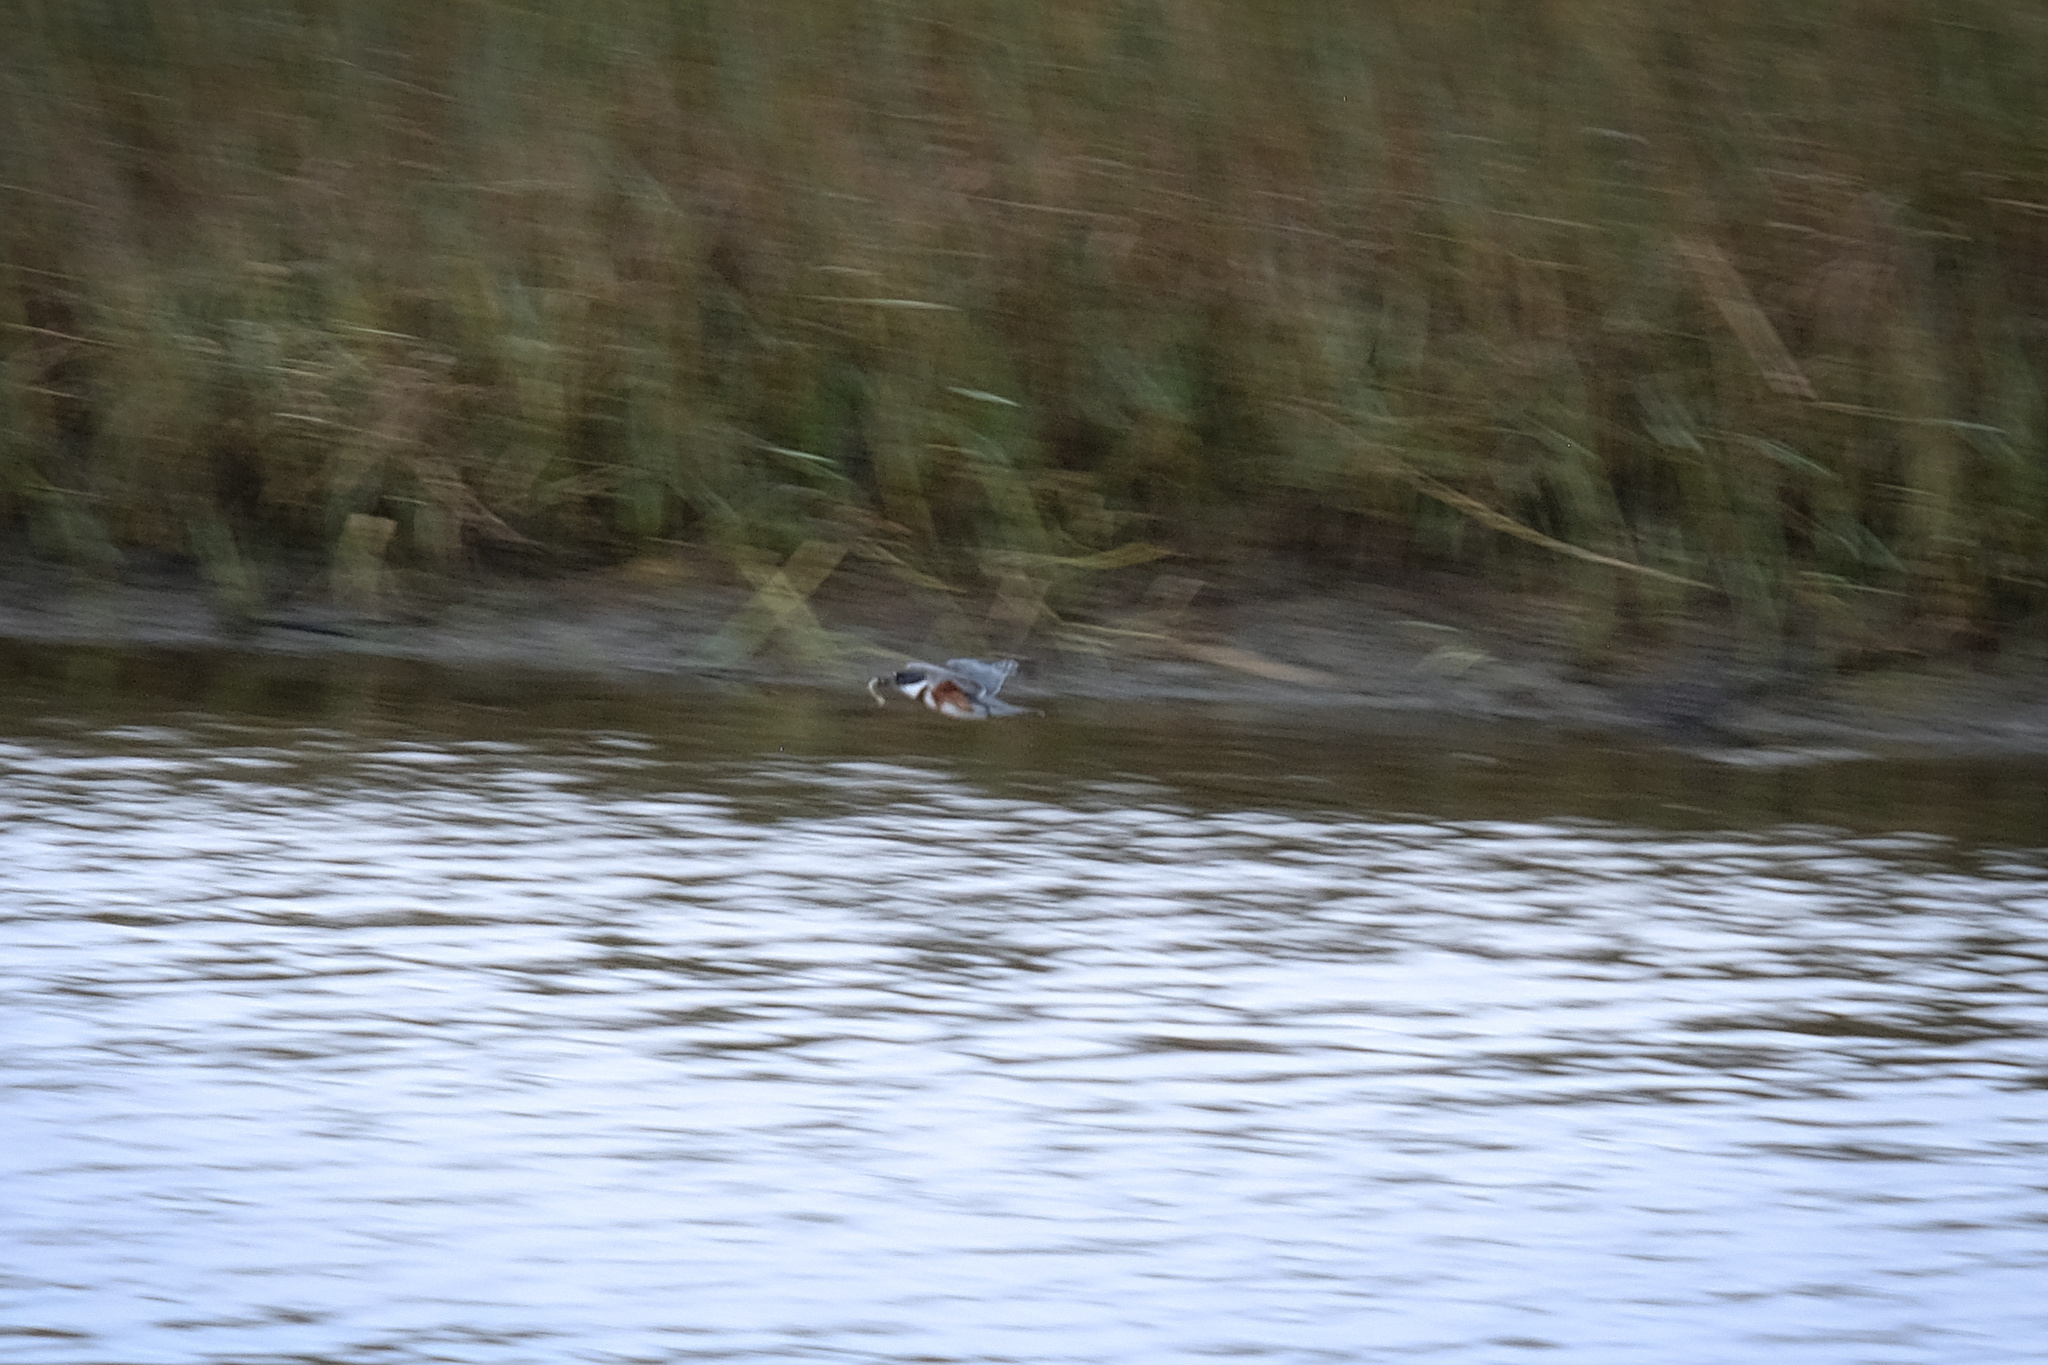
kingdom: Animalia
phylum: Chordata
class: Aves
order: Coraciiformes
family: Alcedinidae
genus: Megaceryle
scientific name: Megaceryle alcyon
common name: Belted kingfisher
